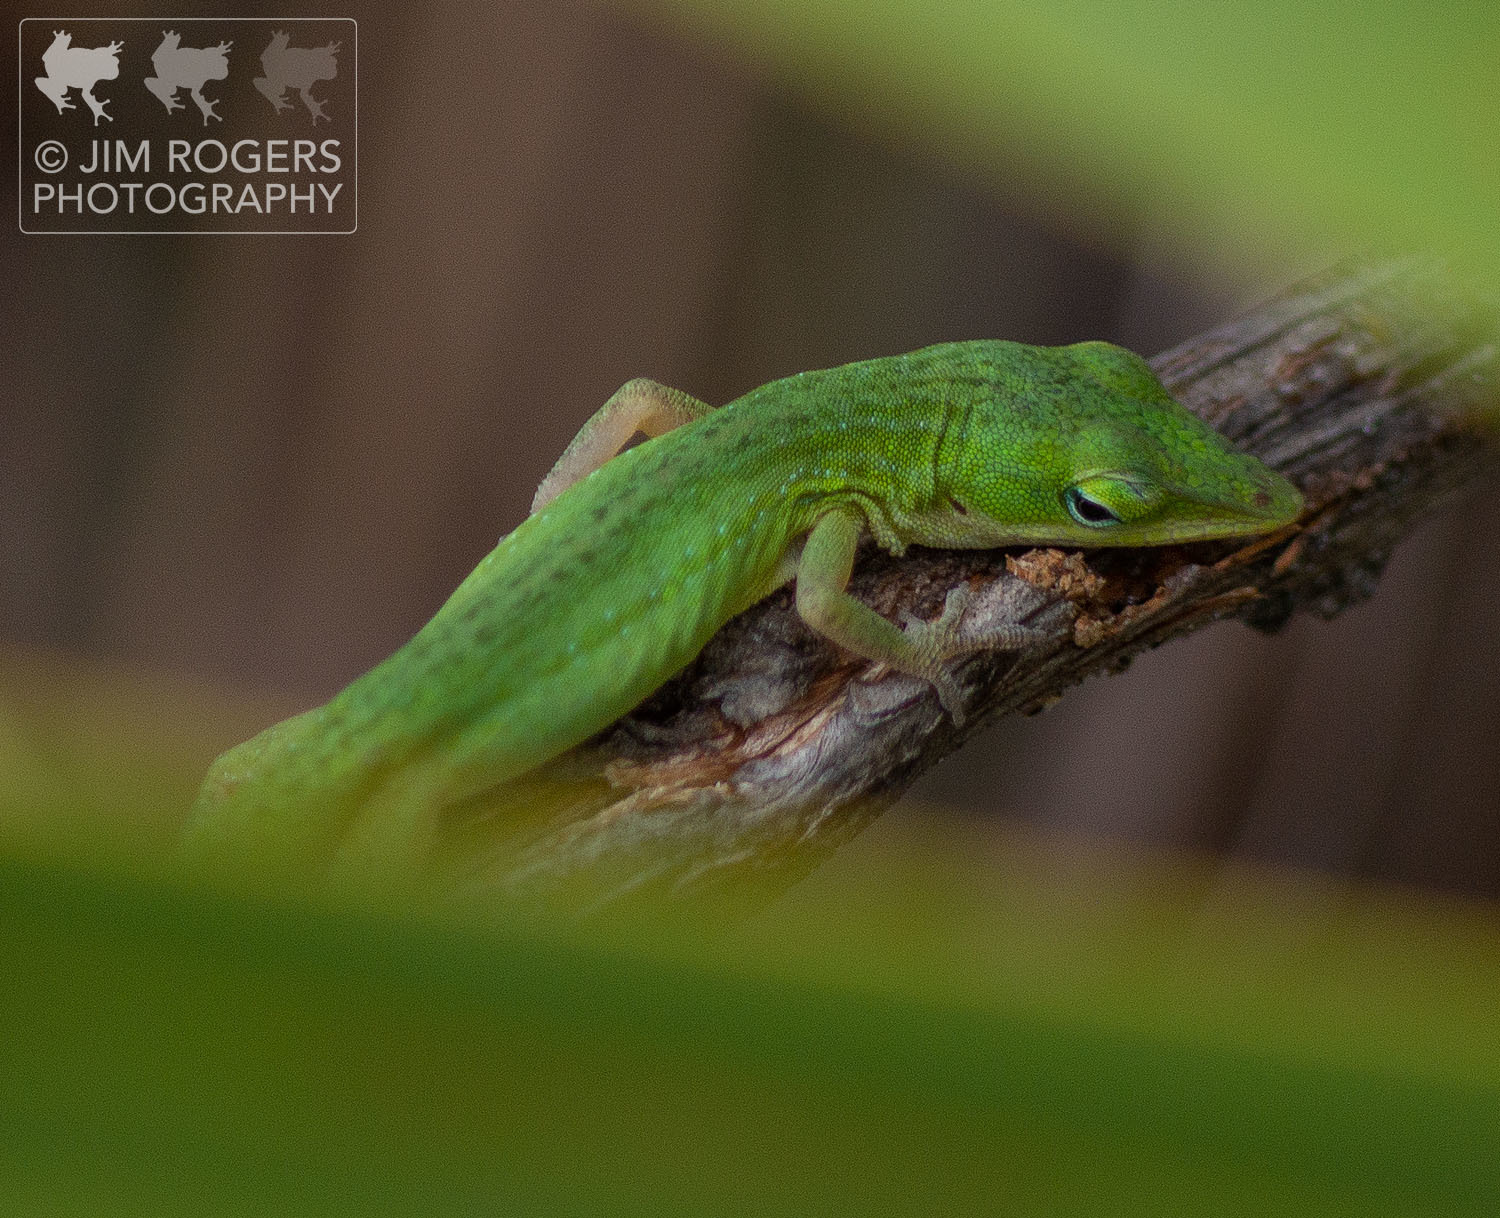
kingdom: Animalia
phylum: Chordata
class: Squamata
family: Dactyloidae
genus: Anolis
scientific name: Anolis carolinensis
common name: Green anole
